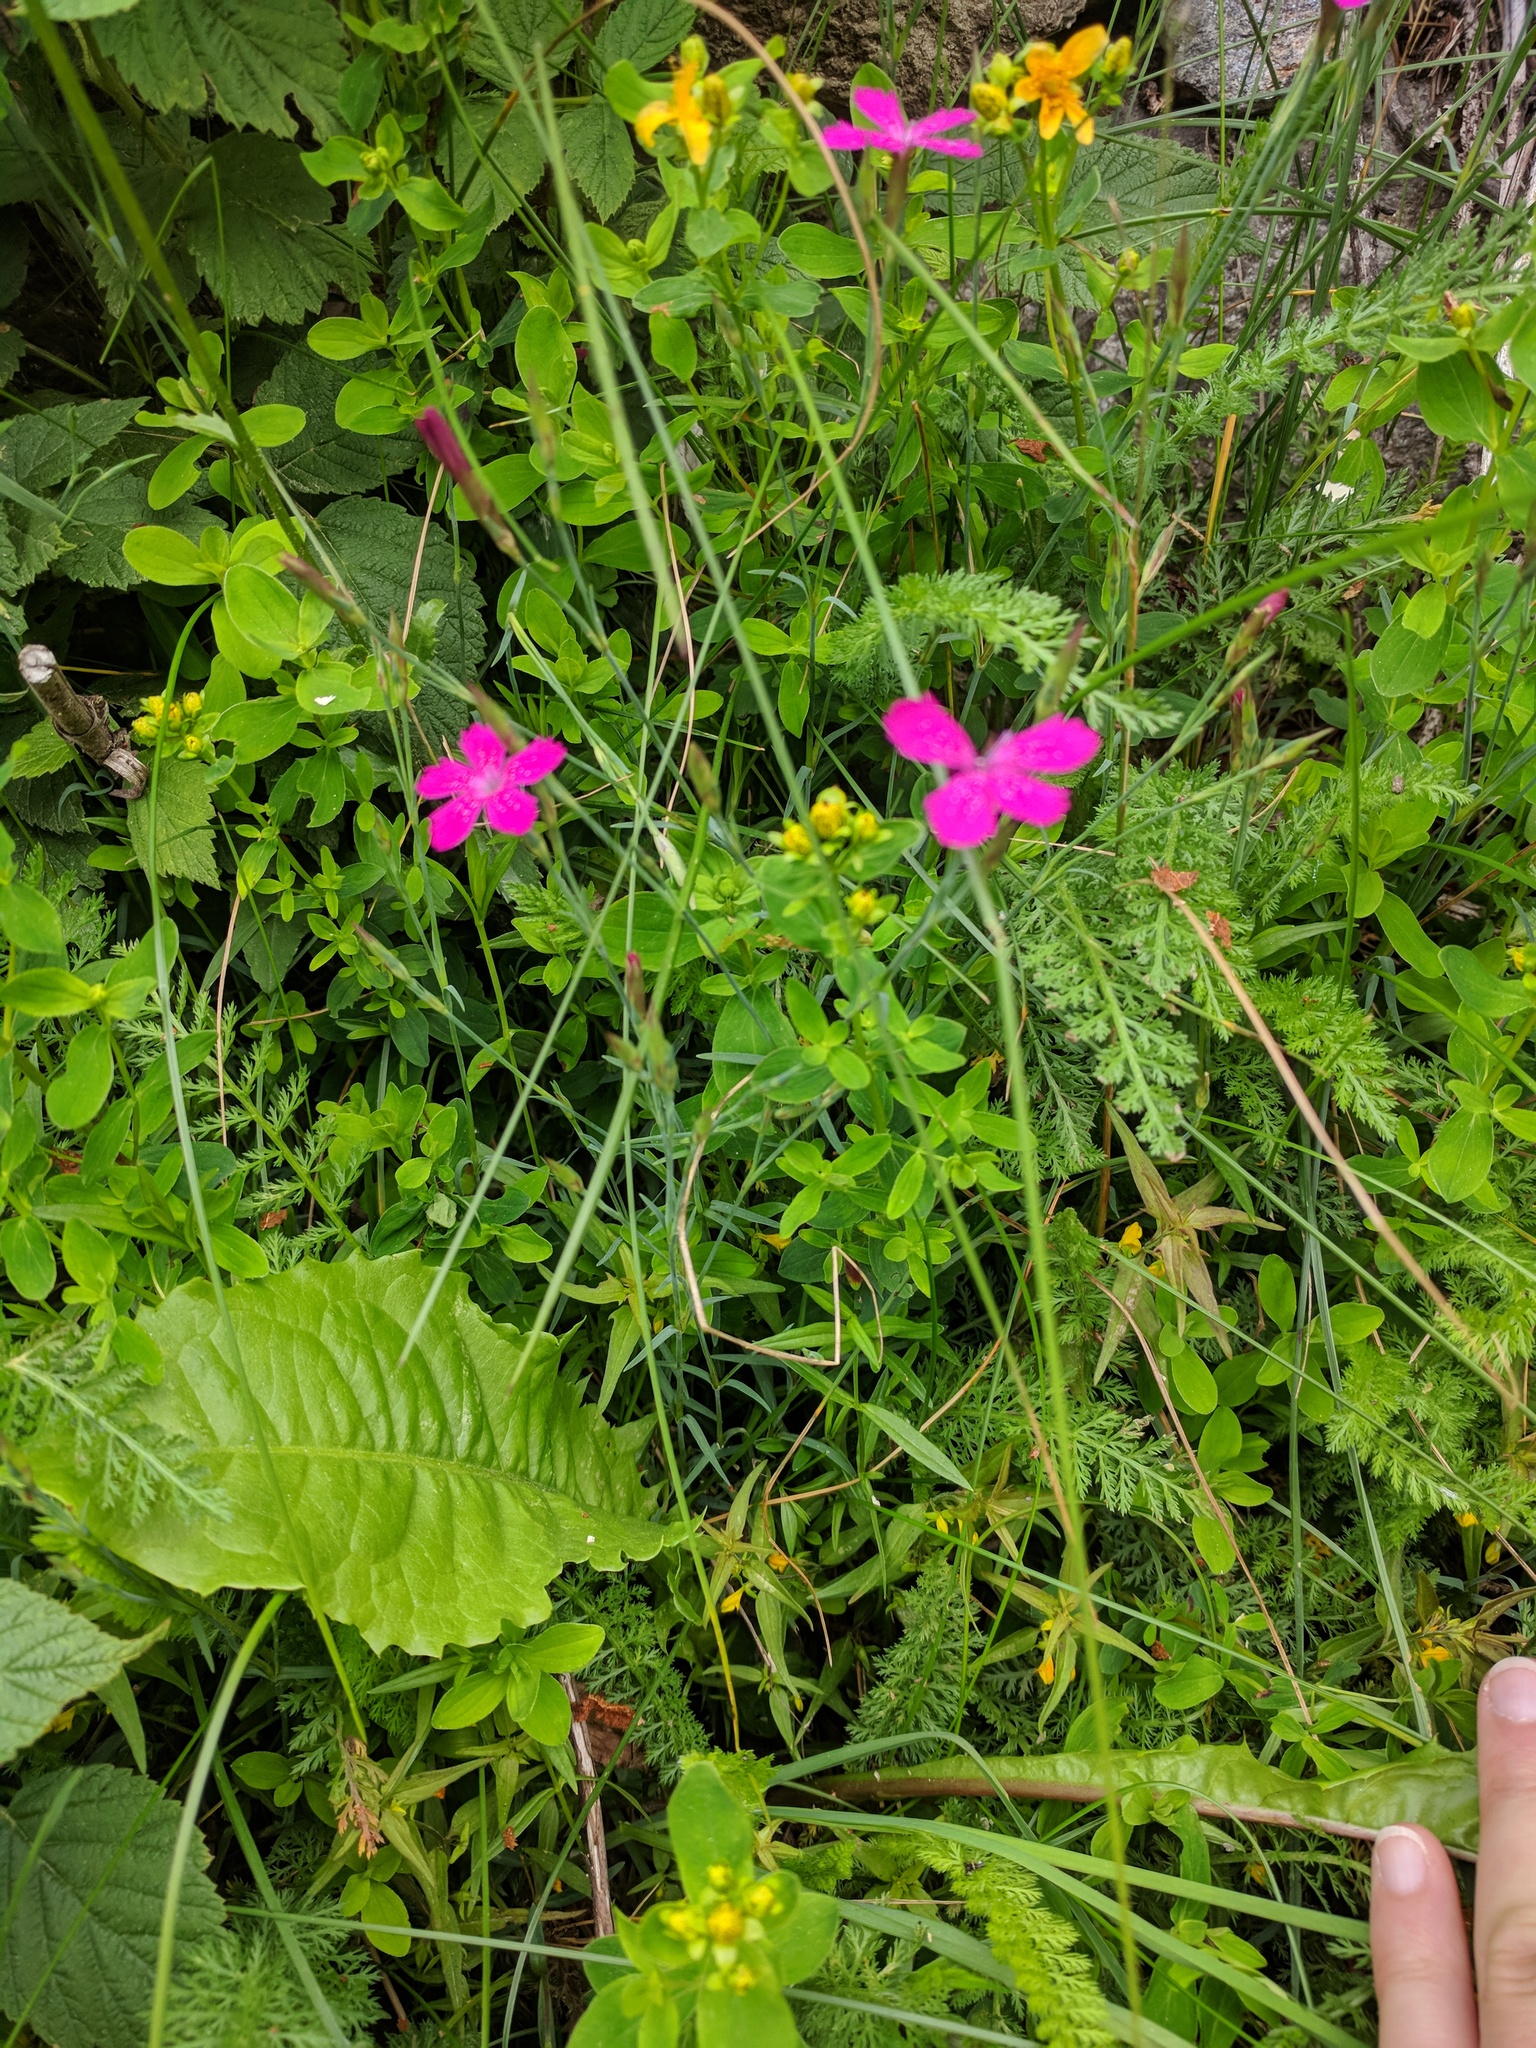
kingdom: Plantae
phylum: Tracheophyta
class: Magnoliopsida
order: Caryophyllales
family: Caryophyllaceae
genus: Dianthus
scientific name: Dianthus deltoides
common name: Maiden pink
